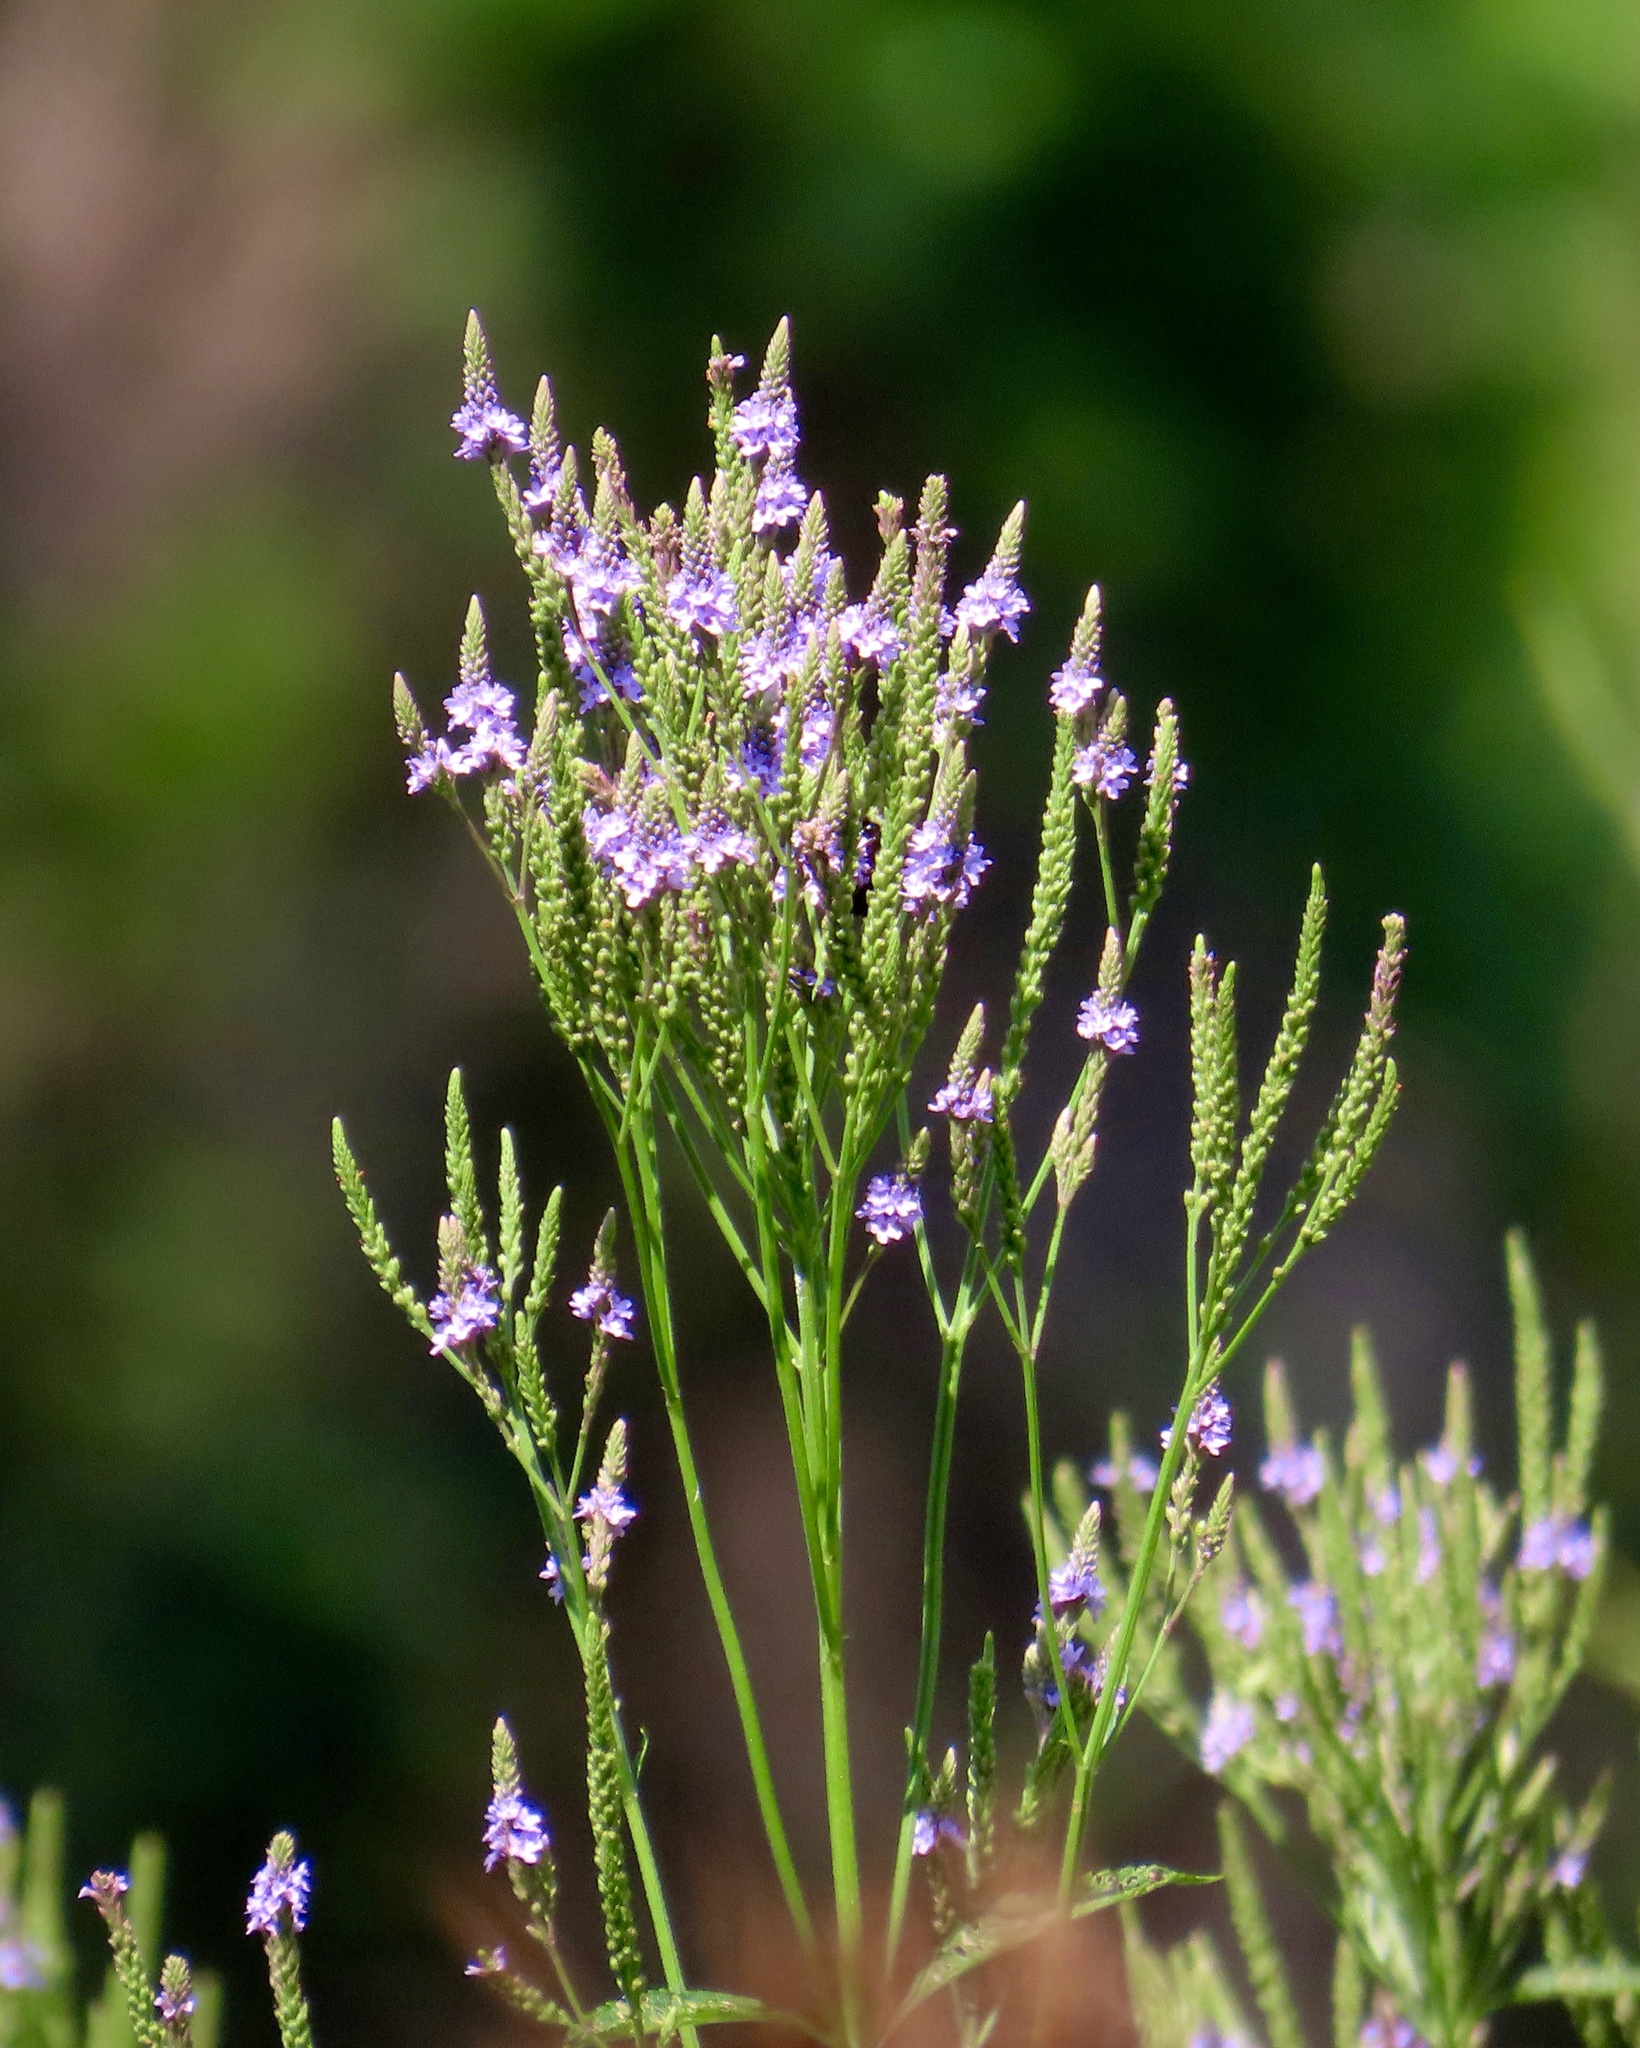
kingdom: Plantae
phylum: Tracheophyta
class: Magnoliopsida
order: Lamiales
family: Verbenaceae
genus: Verbena
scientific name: Verbena hastata
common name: American blue vervain
